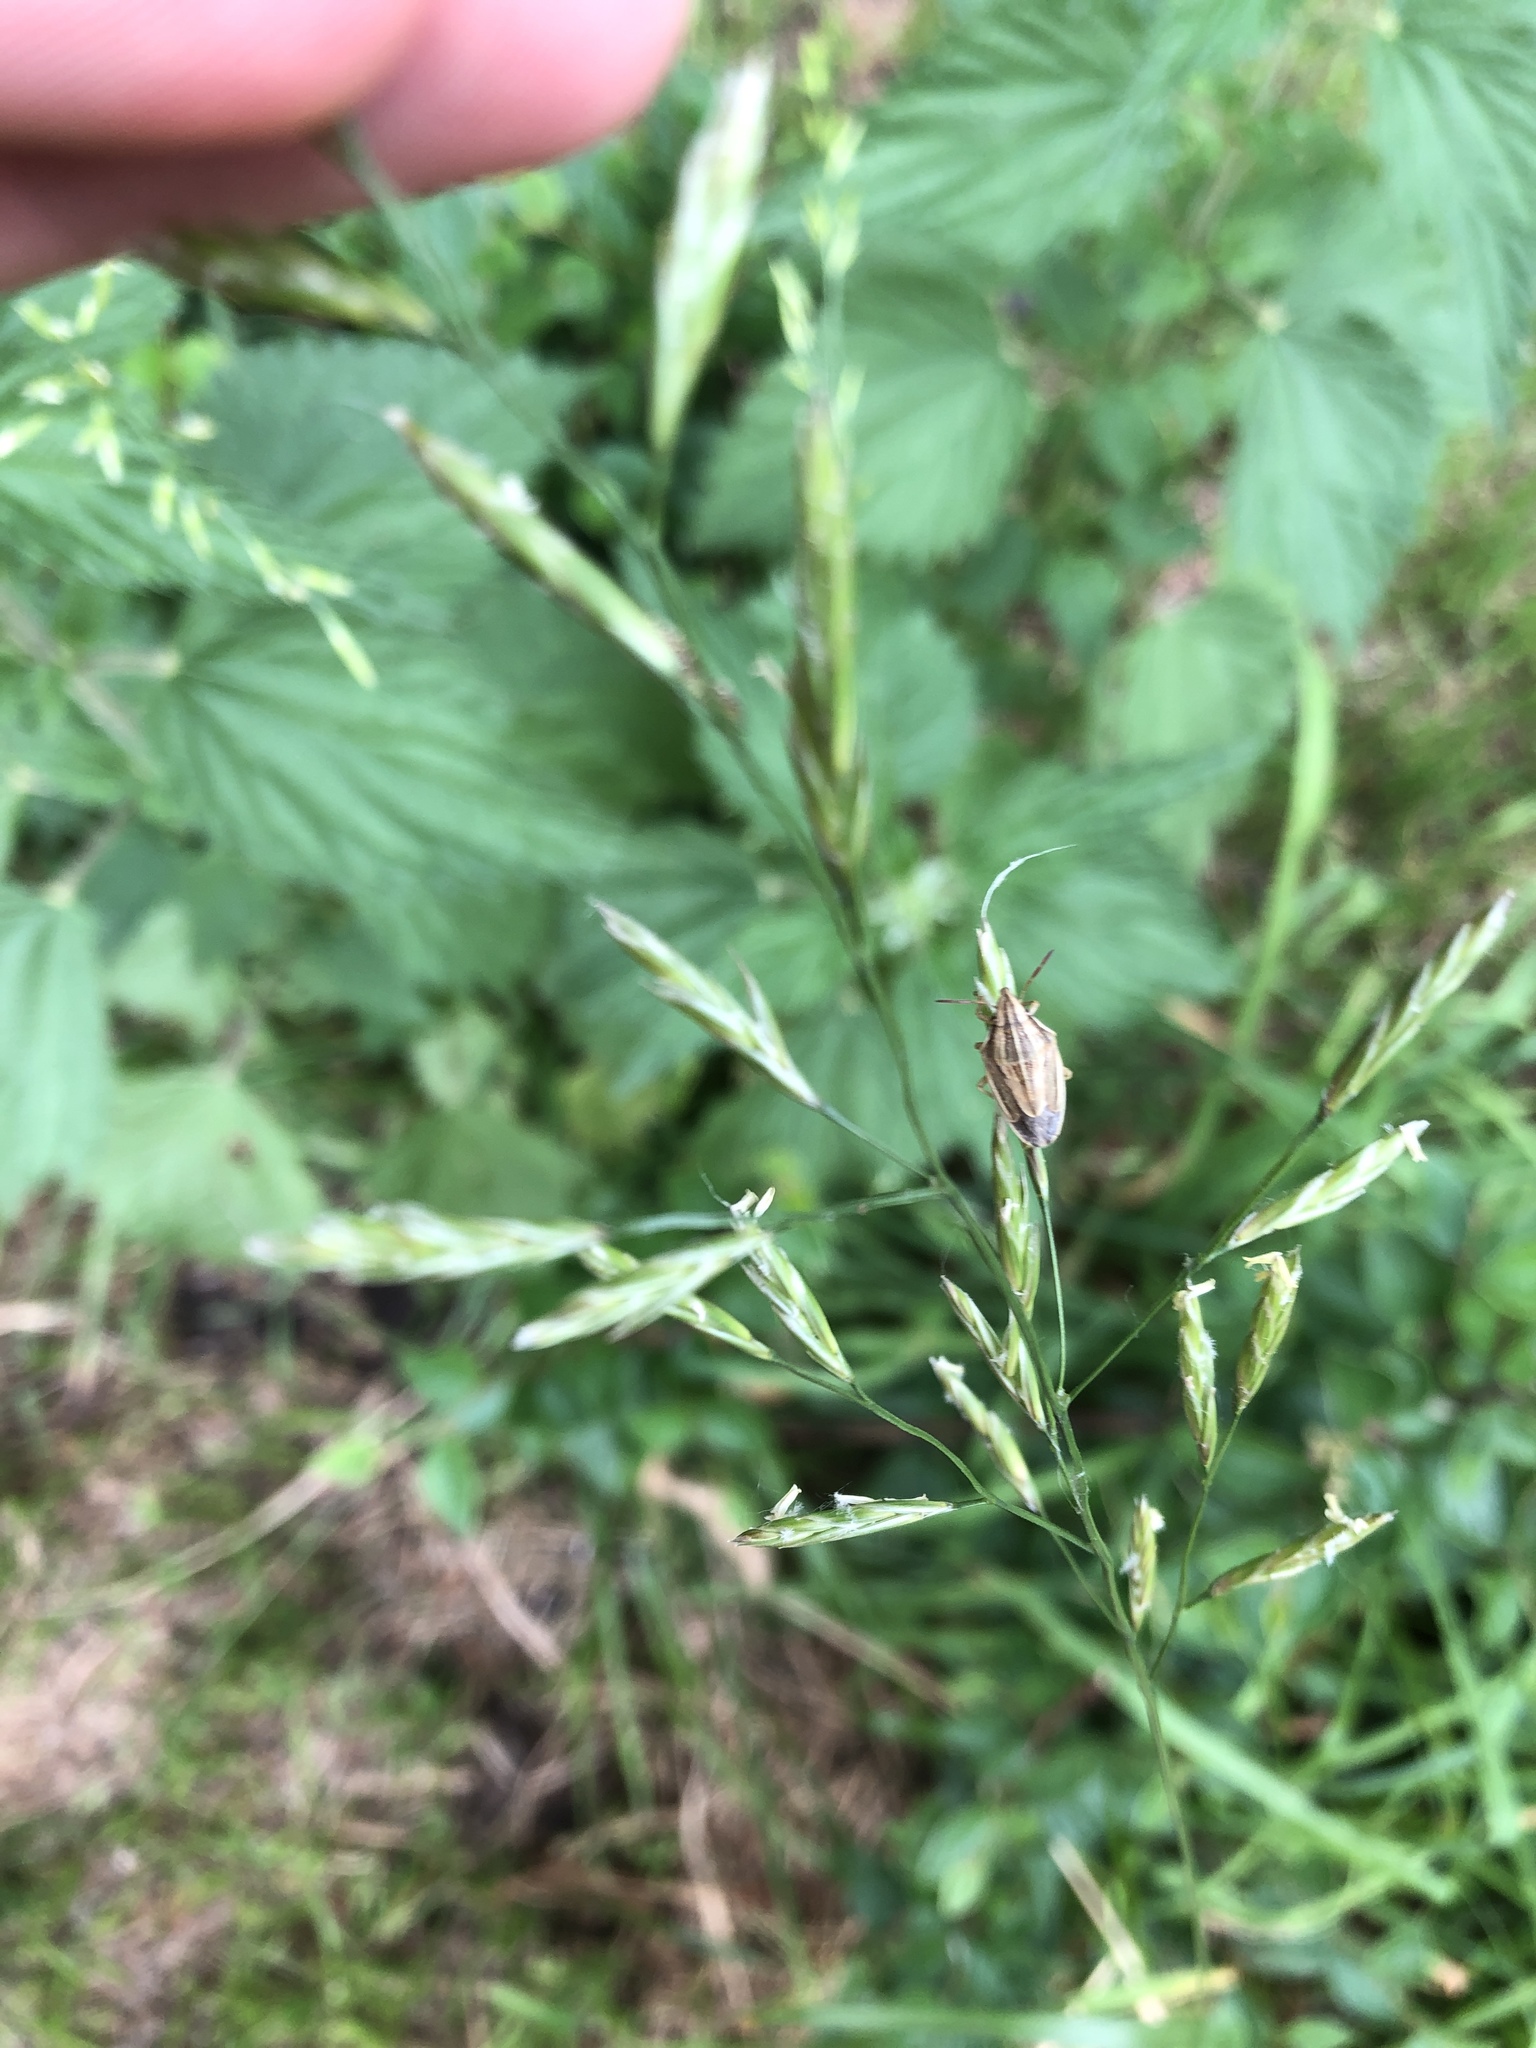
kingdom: Animalia
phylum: Arthropoda
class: Insecta
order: Hemiptera
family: Pentatomidae
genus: Aelia
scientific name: Aelia acuminata
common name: Bishop's mitre
